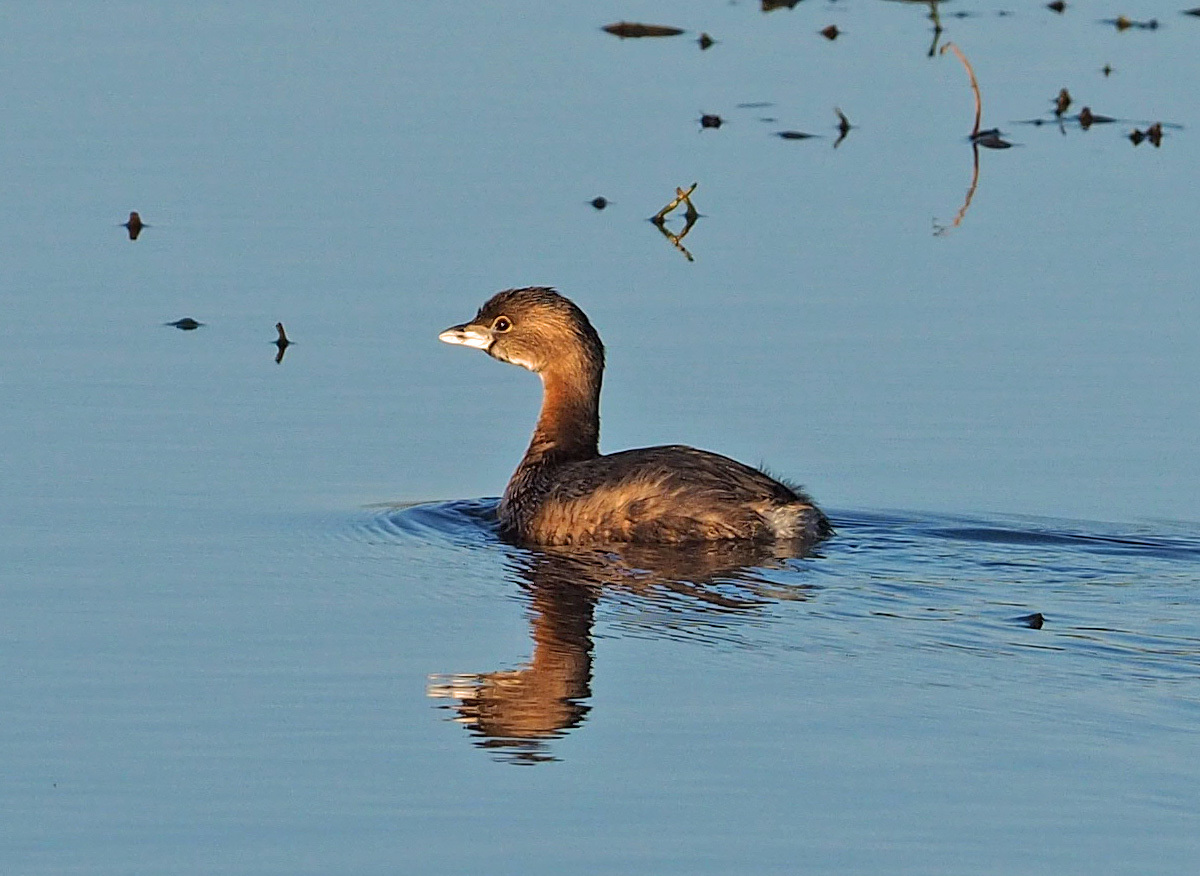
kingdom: Animalia
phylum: Chordata
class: Aves
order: Podicipediformes
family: Podicipedidae
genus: Podilymbus
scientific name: Podilymbus podiceps
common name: Pied-billed grebe
